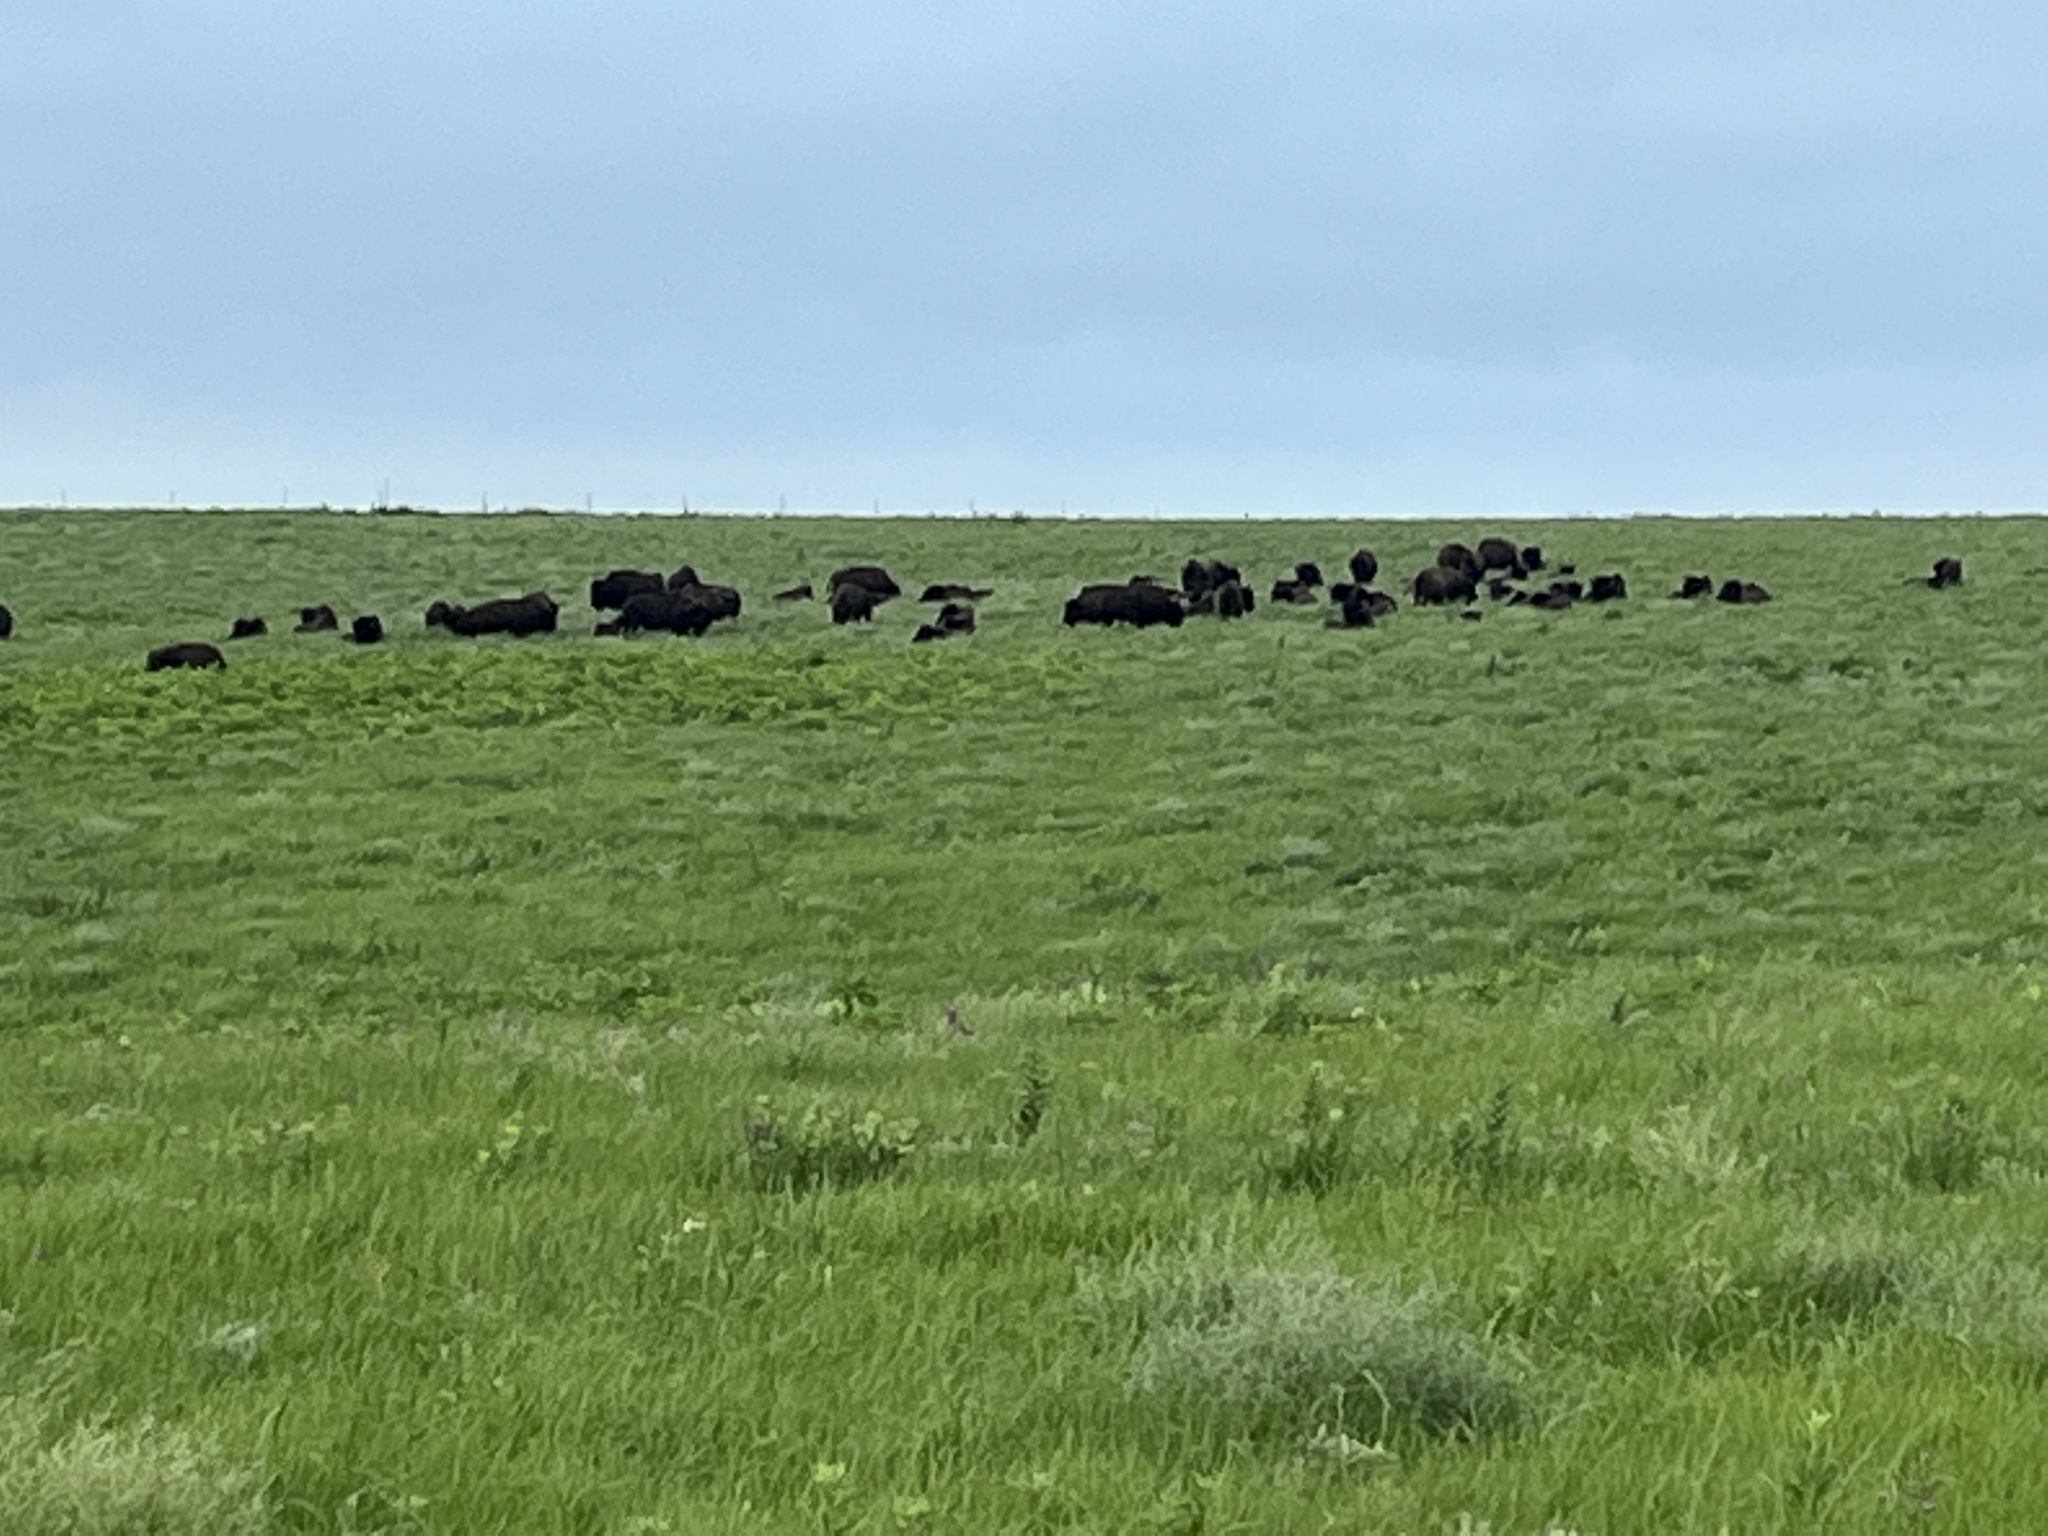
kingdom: Animalia
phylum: Chordata
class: Mammalia
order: Artiodactyla
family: Bovidae
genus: Bison
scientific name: Bison bison
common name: American bison
